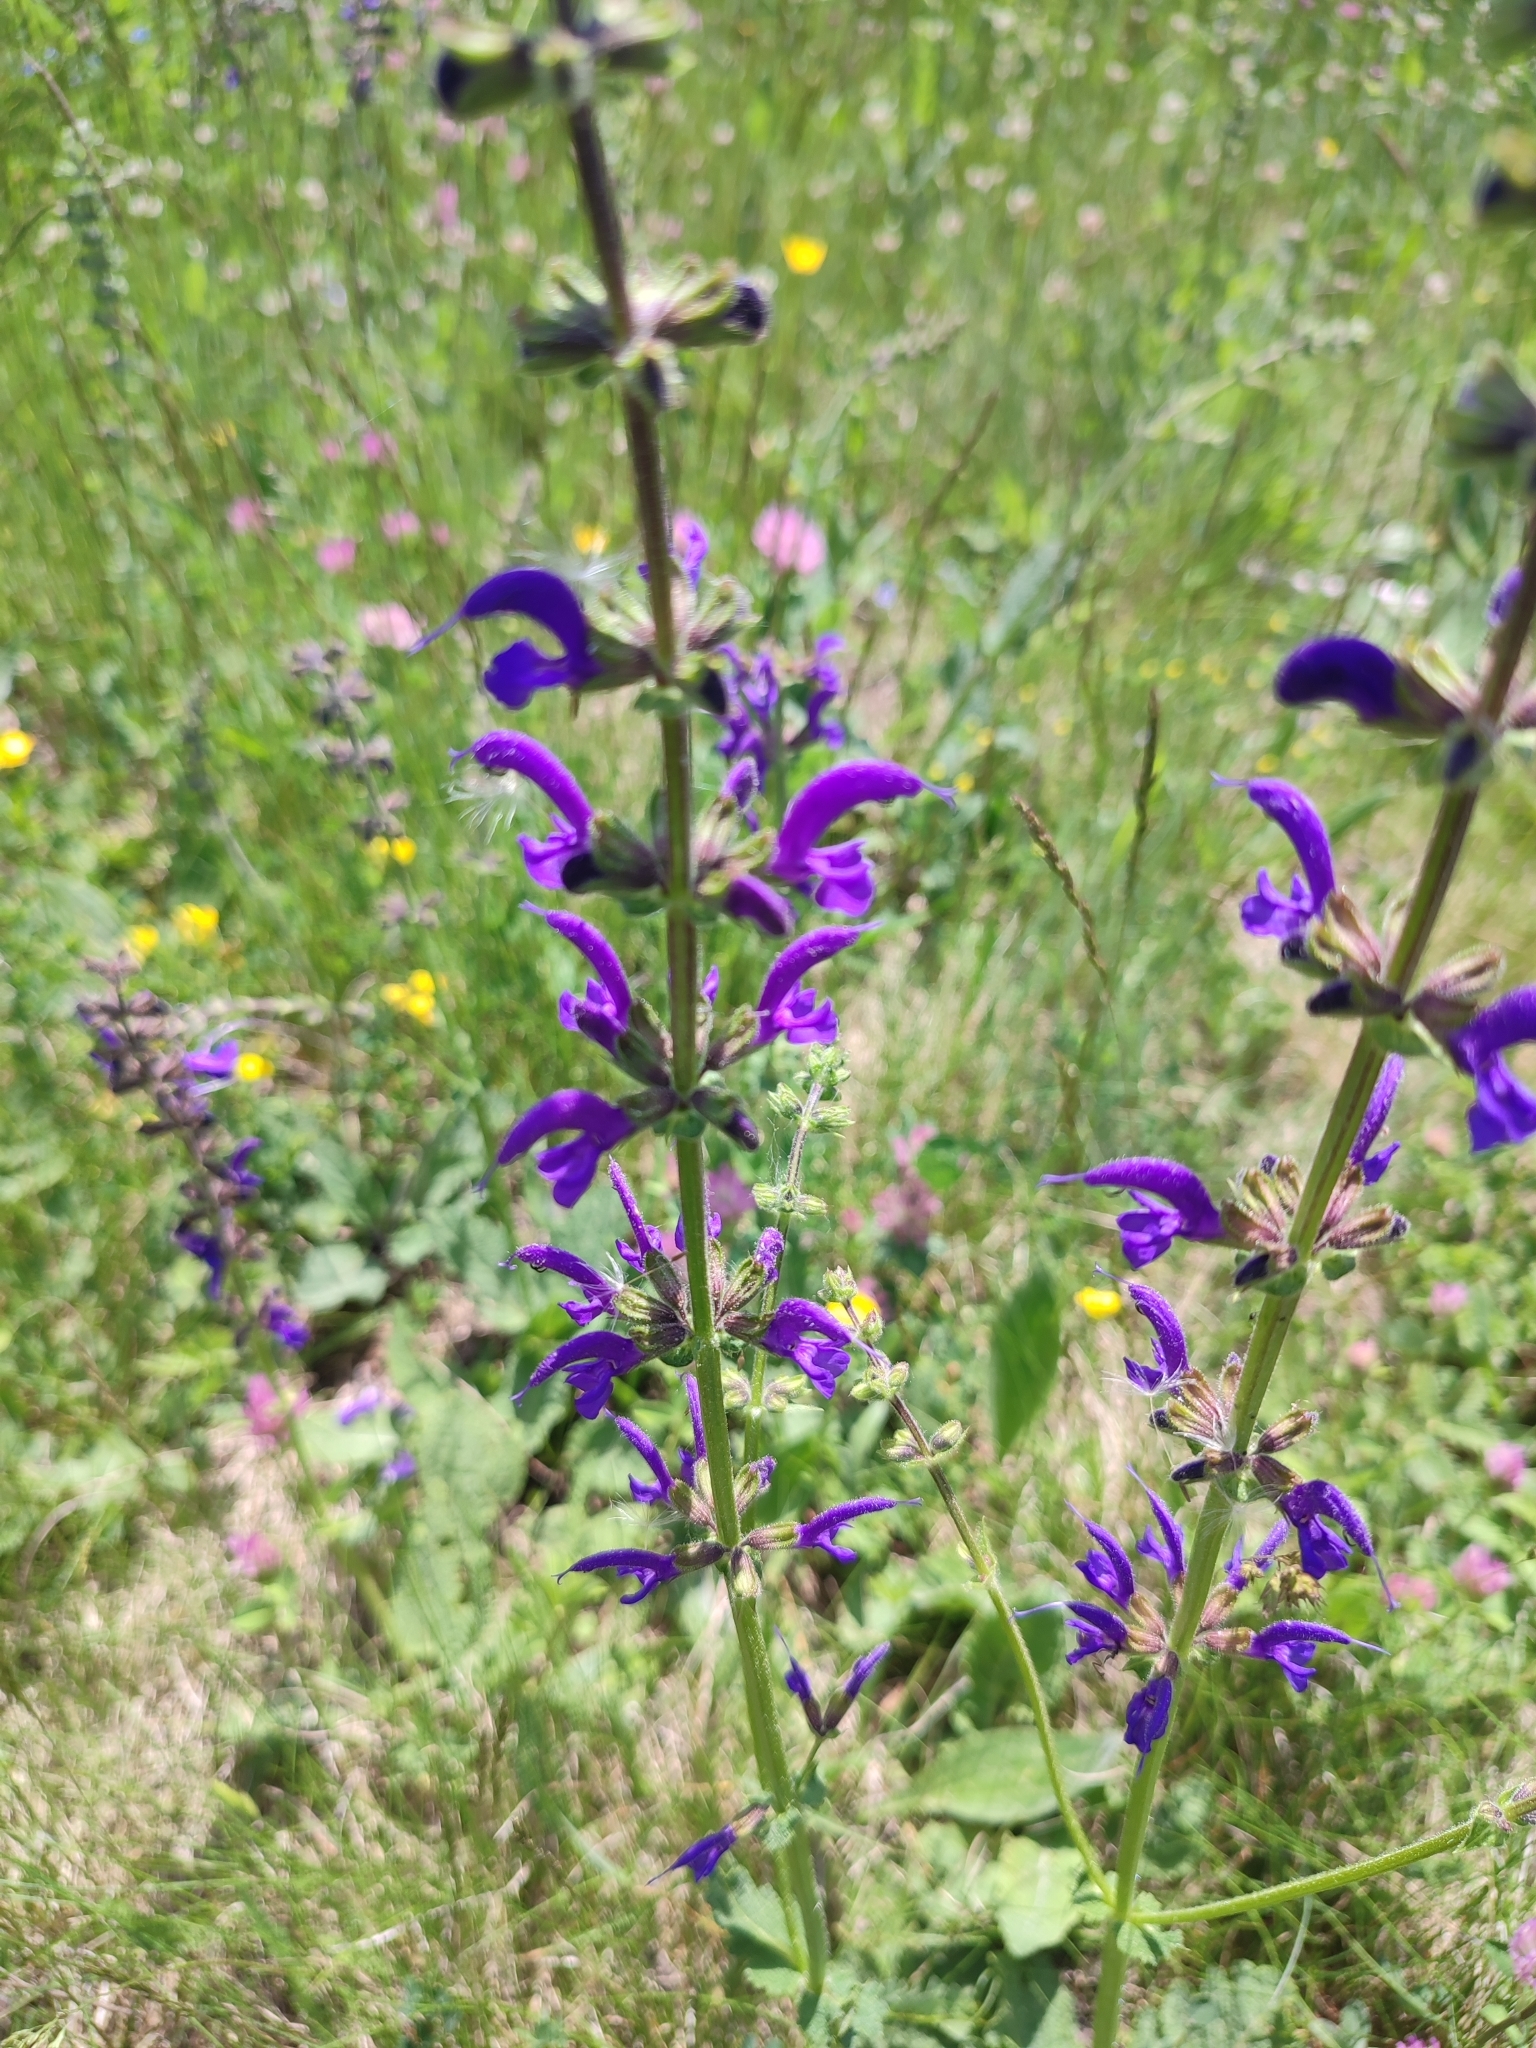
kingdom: Plantae
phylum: Tracheophyta
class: Magnoliopsida
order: Lamiales
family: Lamiaceae
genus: Salvia
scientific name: Salvia pratensis
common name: Meadow sage
